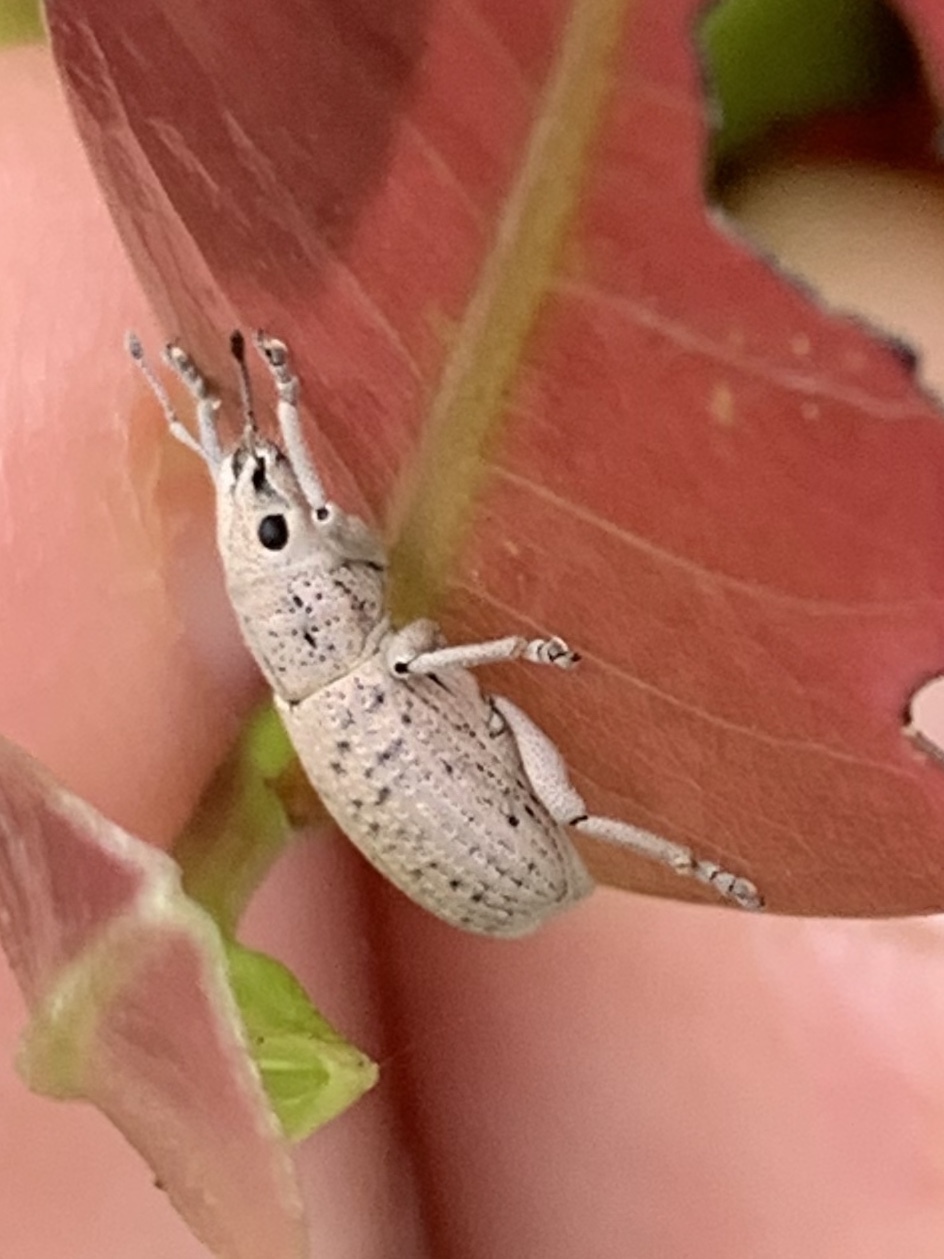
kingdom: Animalia
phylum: Arthropoda
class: Insecta
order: Coleoptera
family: Curculionidae
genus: Artipus
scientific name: Artipus floridanus
